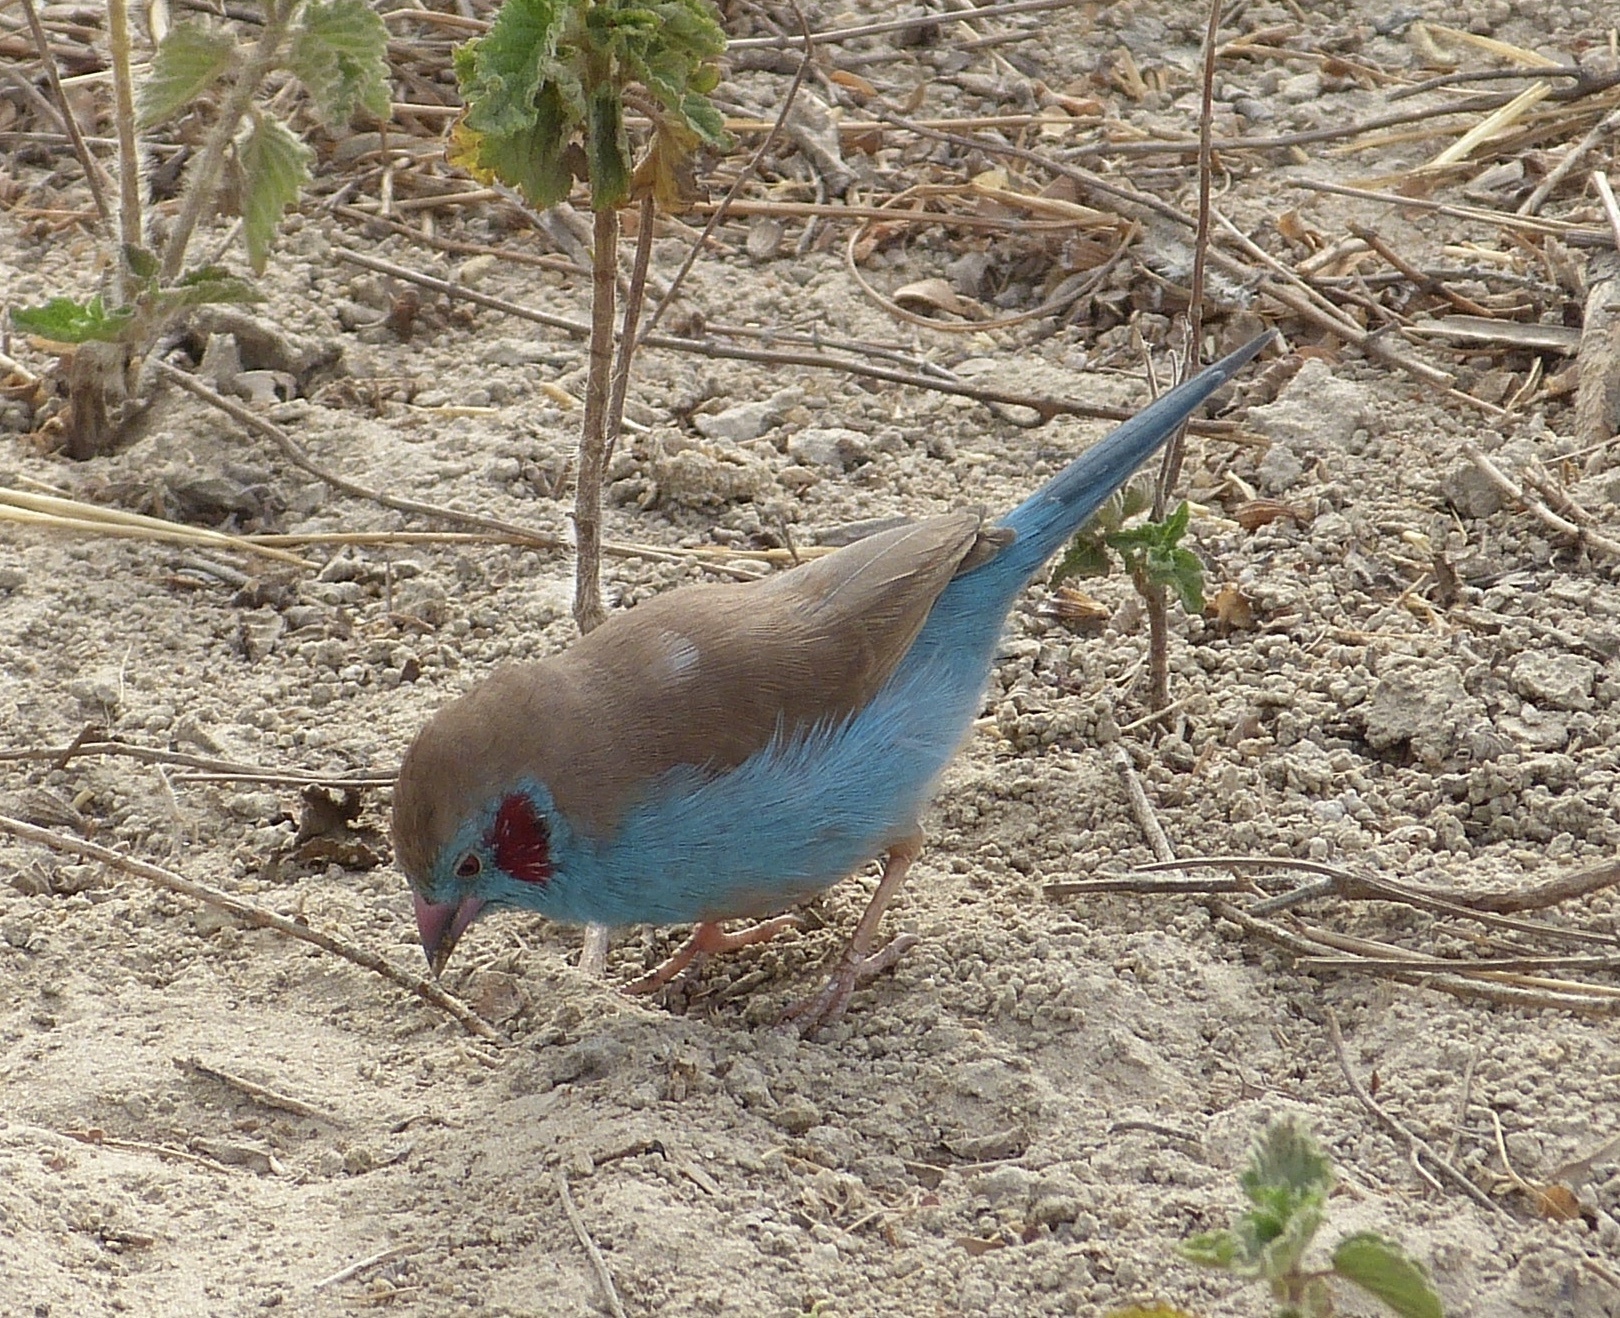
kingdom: Animalia
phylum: Chordata
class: Aves
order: Passeriformes
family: Estrildidae
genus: Uraeginthus
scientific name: Uraeginthus bengalus
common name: Red-cheeked cordon-bleu
